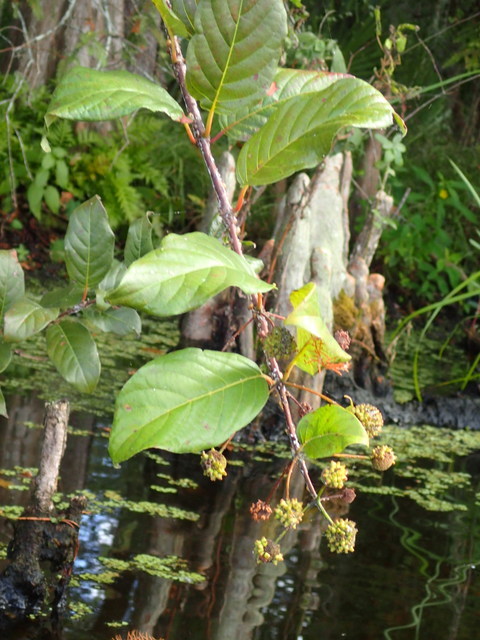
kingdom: Plantae
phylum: Tracheophyta
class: Magnoliopsida
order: Gentianales
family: Rubiaceae
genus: Cephalanthus
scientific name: Cephalanthus occidentalis
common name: Button-willow
